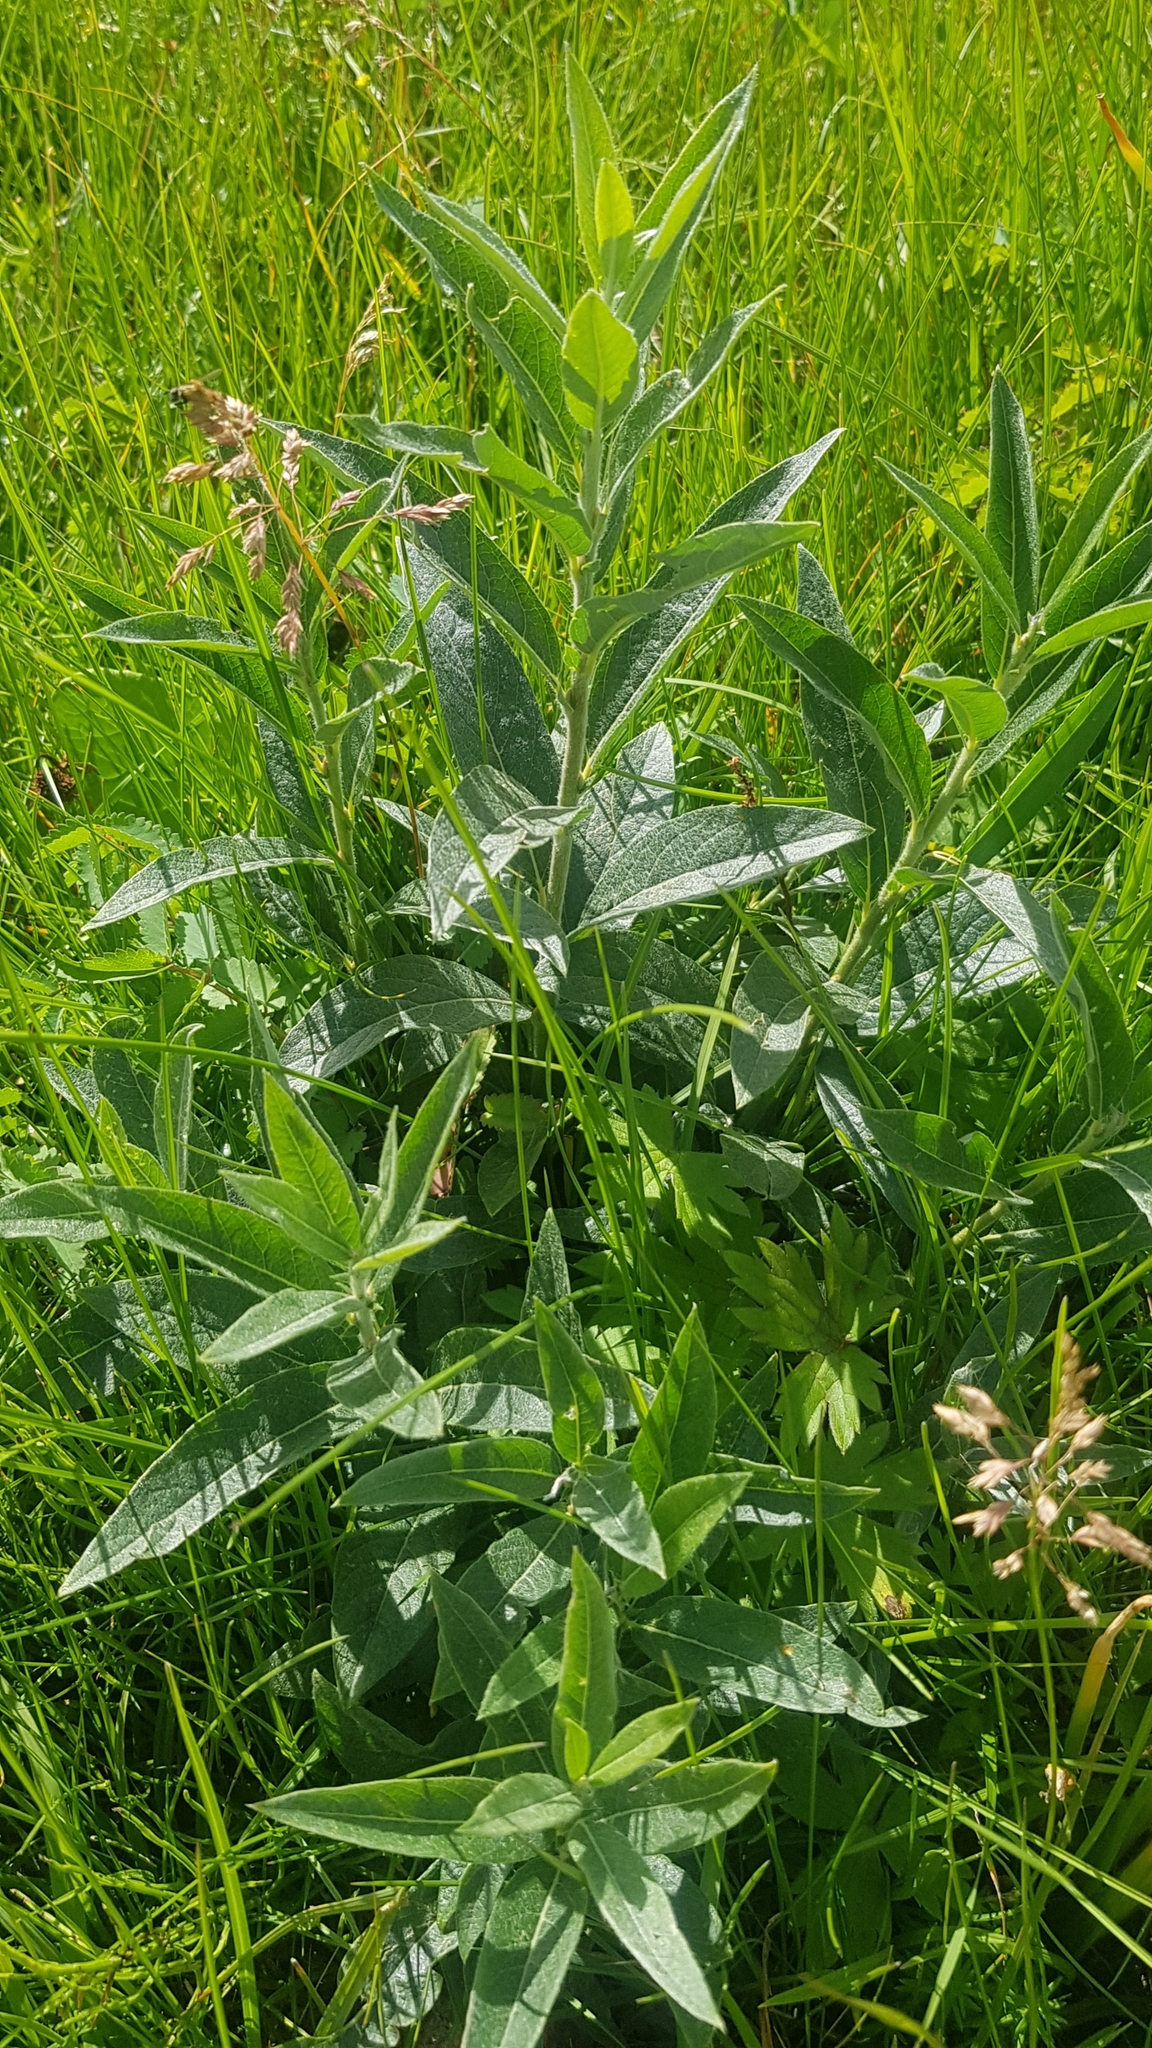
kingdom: Plantae
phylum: Tracheophyta
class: Magnoliopsida
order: Malpighiales
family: Salicaceae
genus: Salix
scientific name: Salix glauca
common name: Glaucous willow
